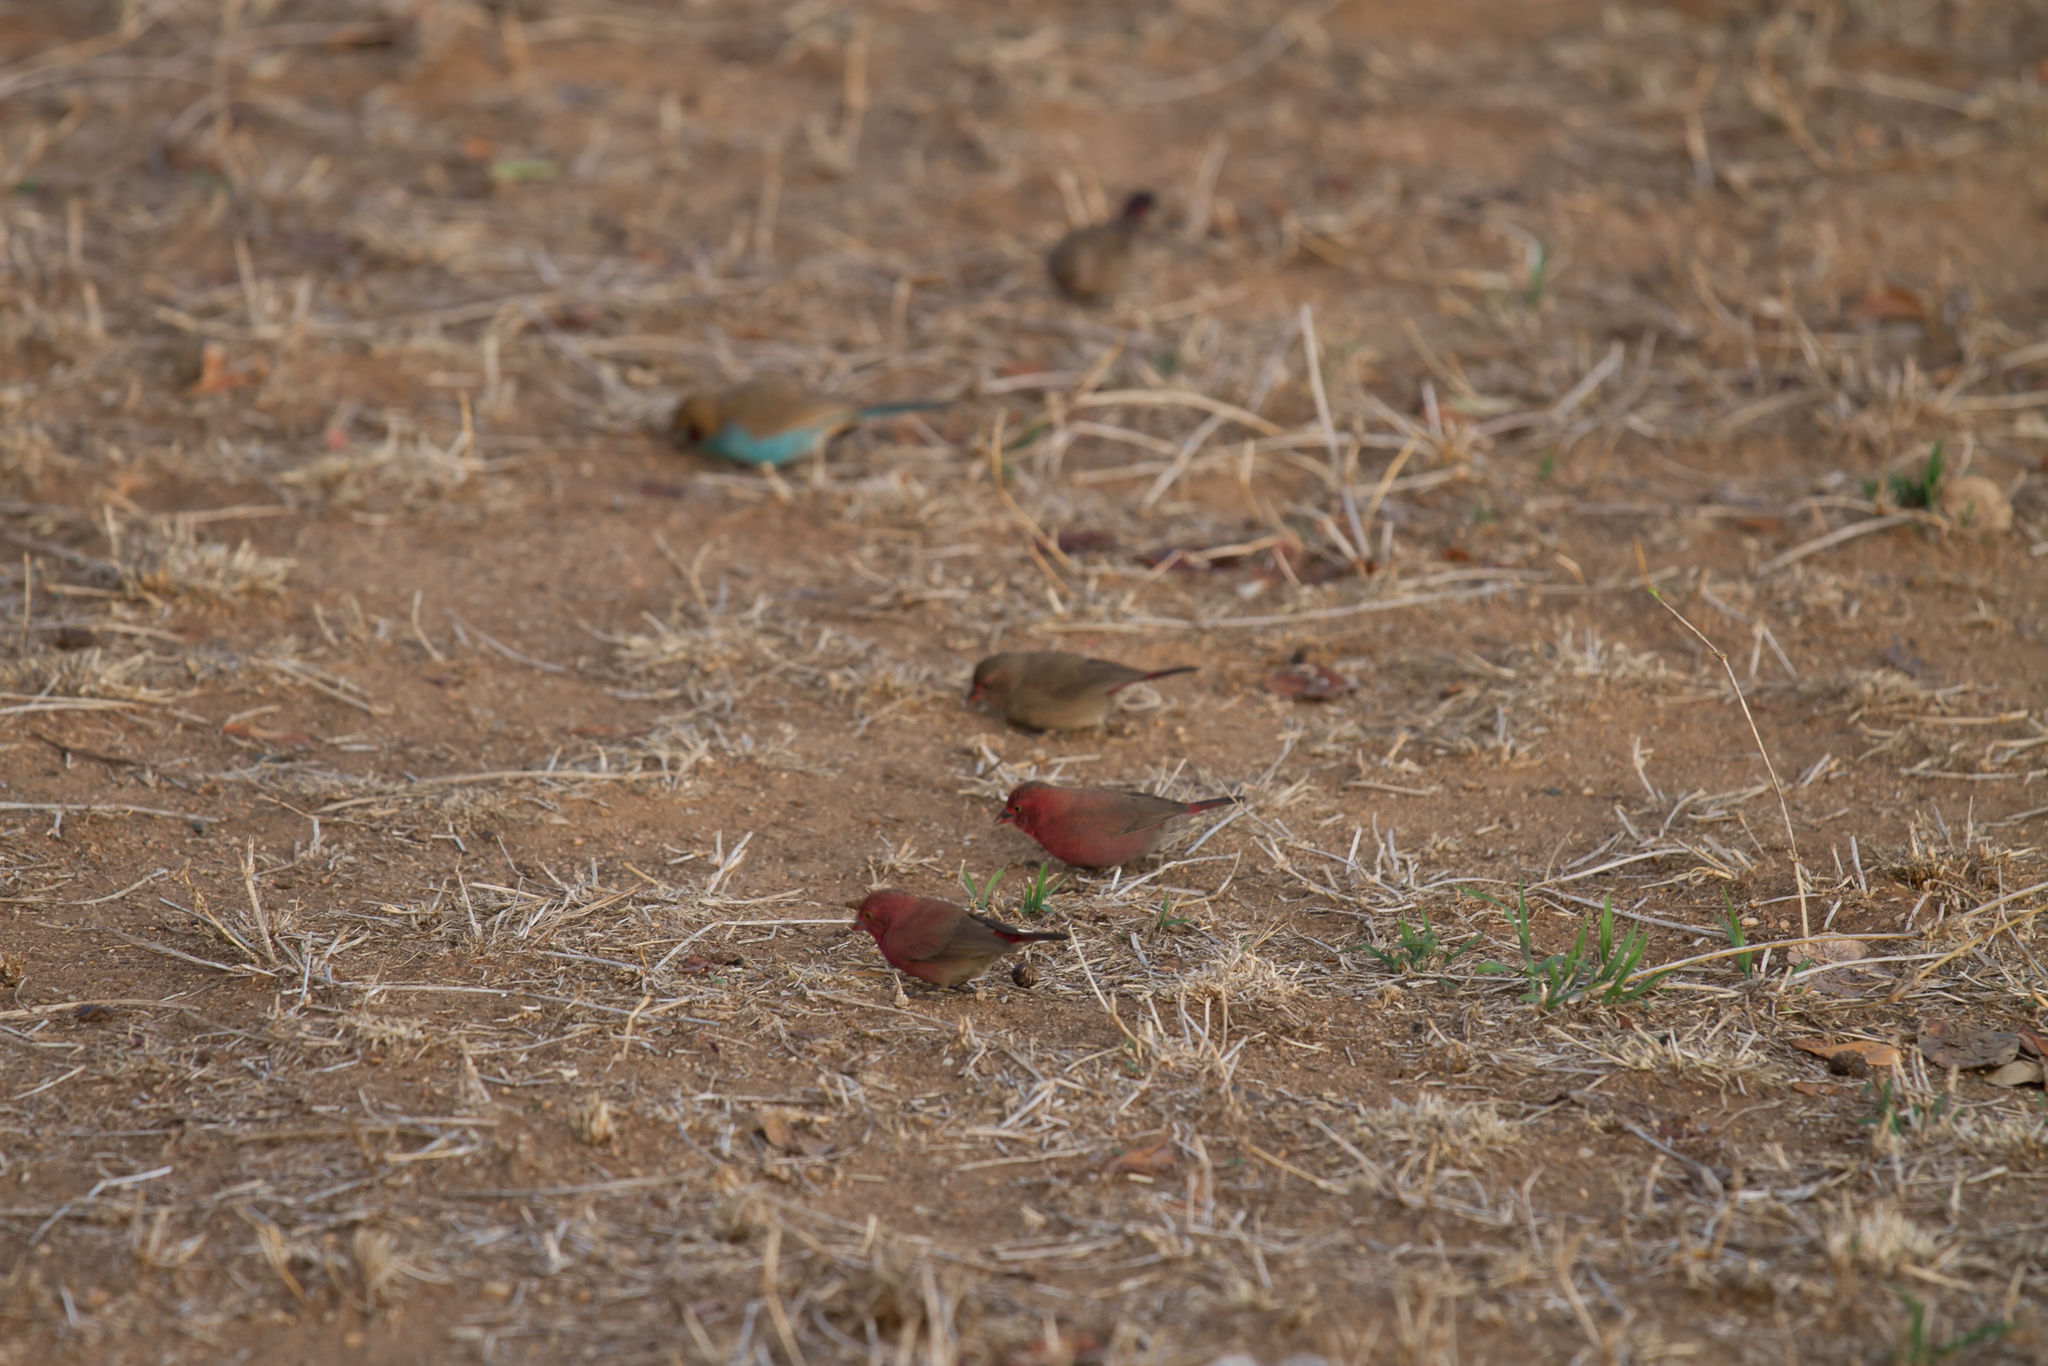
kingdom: Animalia
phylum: Chordata
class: Aves
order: Passeriformes
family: Estrildidae
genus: Uraeginthus
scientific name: Uraeginthus bengalus
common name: Red-cheeked cordon-bleu
